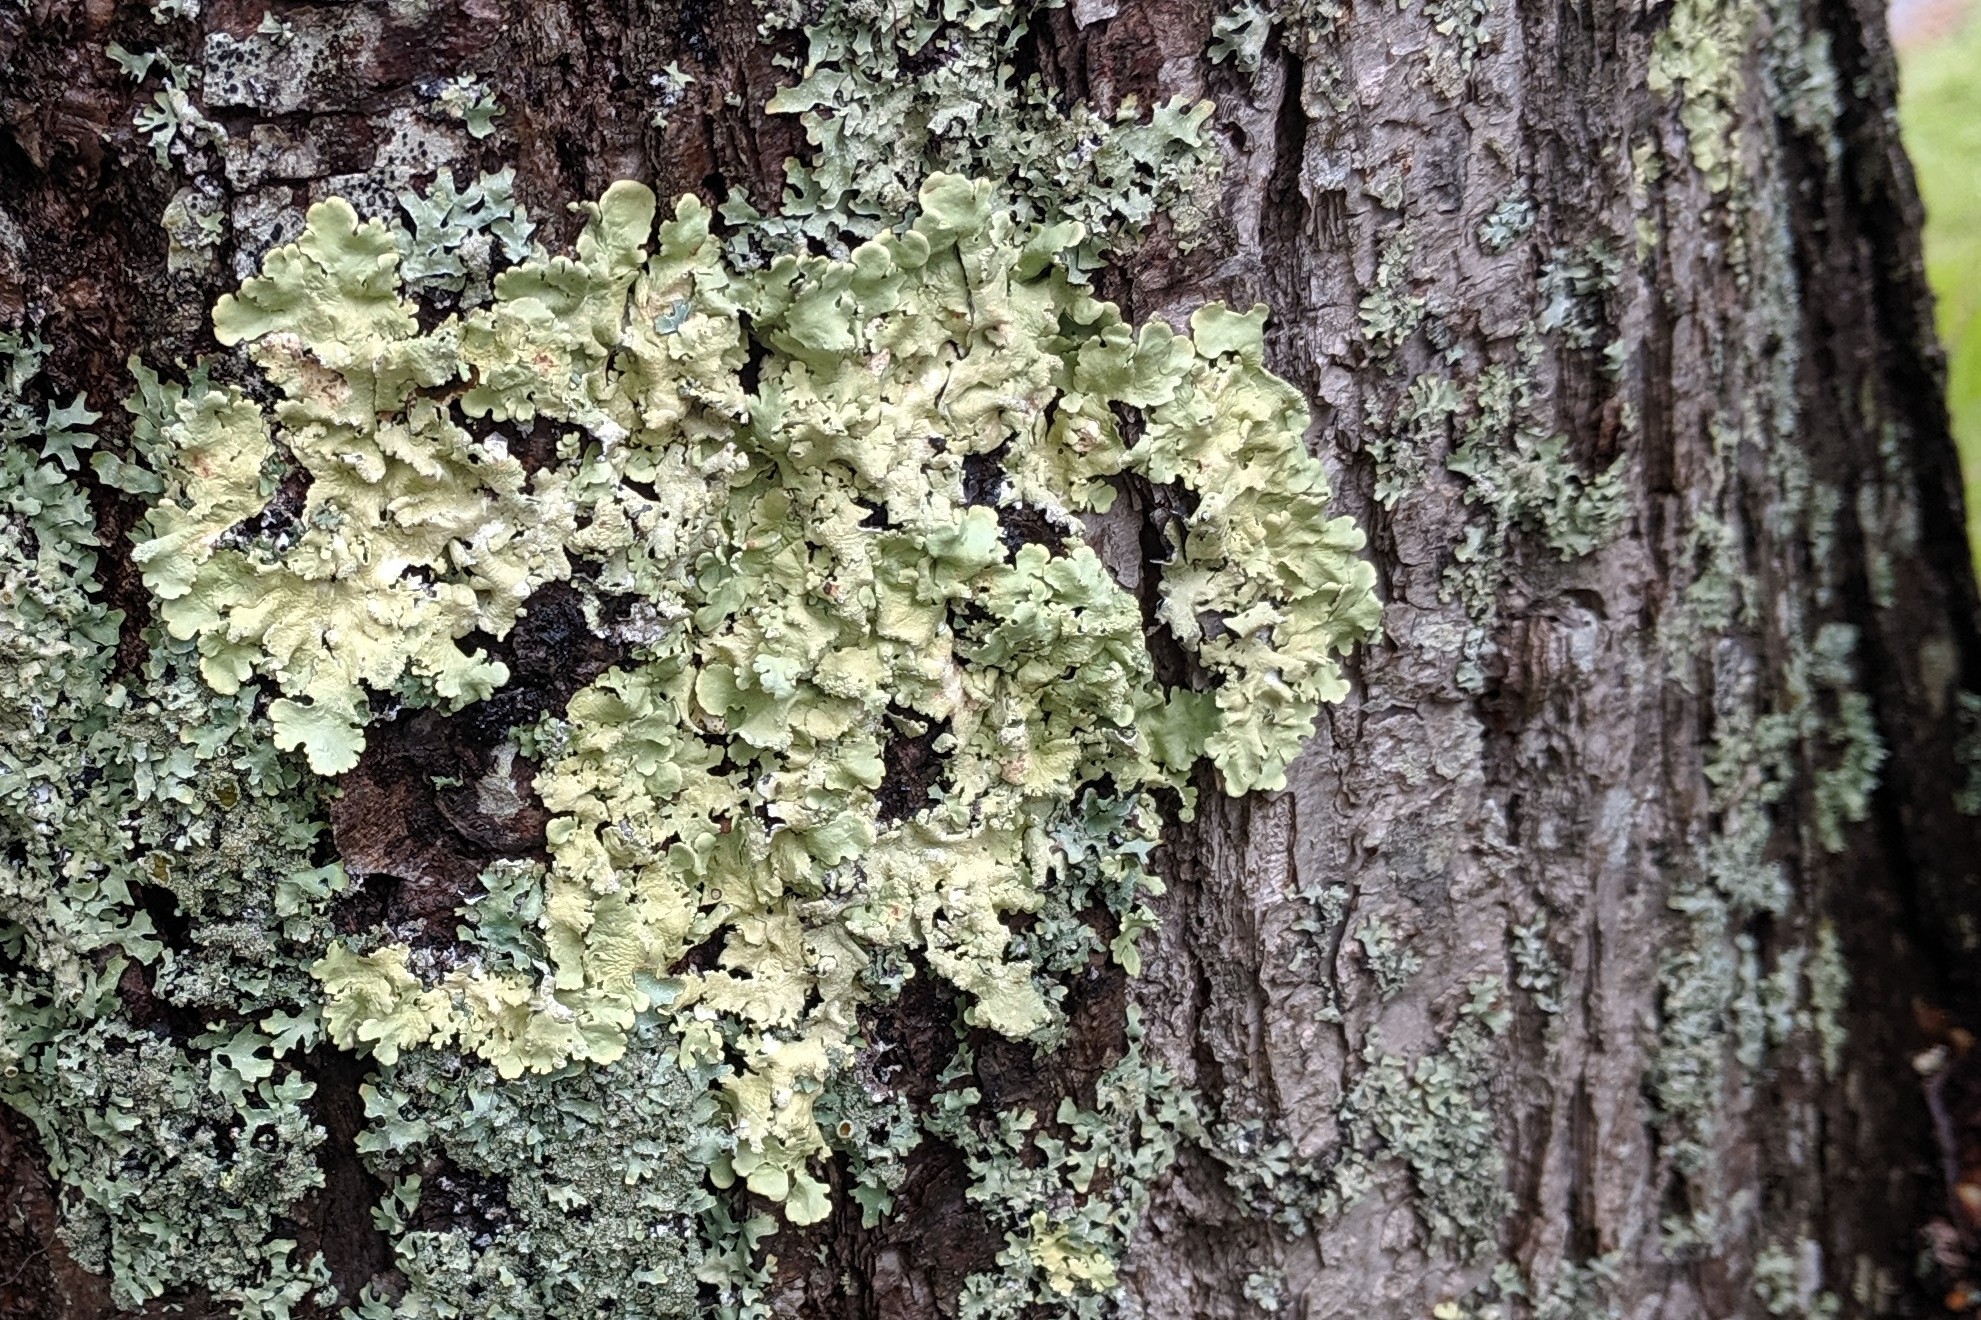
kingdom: Fungi
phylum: Ascomycota
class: Lecanoromycetes
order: Lecanorales
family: Parmeliaceae
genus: Flavoparmelia
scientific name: Flavoparmelia caperata
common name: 40-mile per hour lichen
